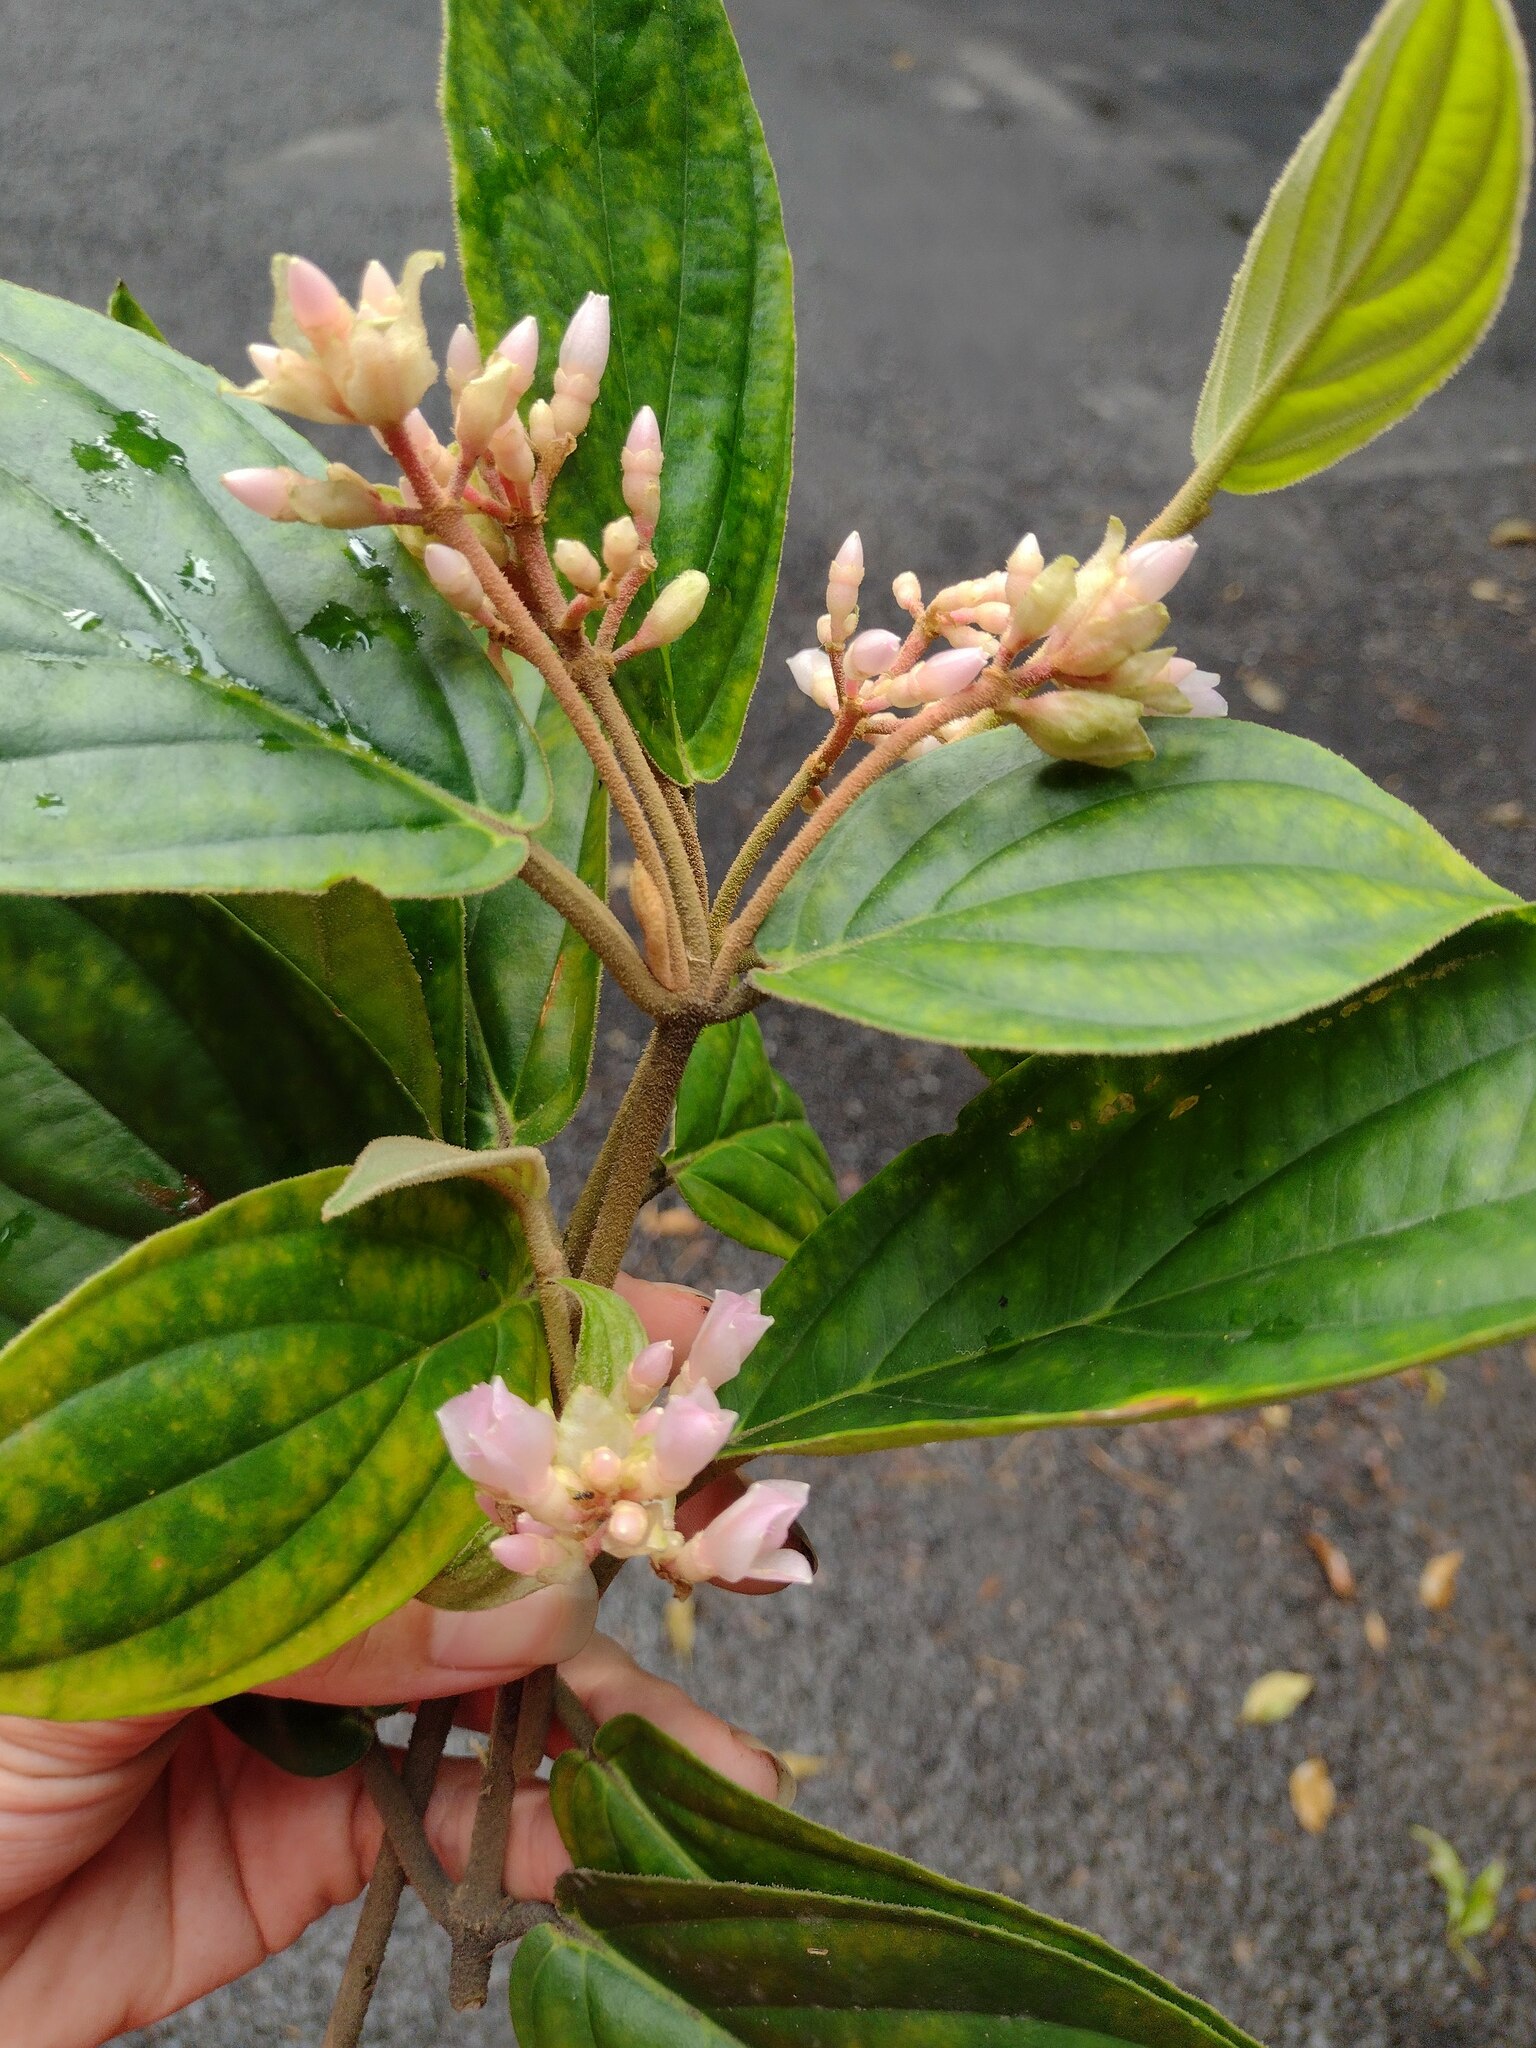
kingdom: Plantae
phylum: Tracheophyta
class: Magnoliopsida
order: Myrtales
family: Melastomataceae
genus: Medinilla
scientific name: Medinilla venosa
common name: Holdtight
